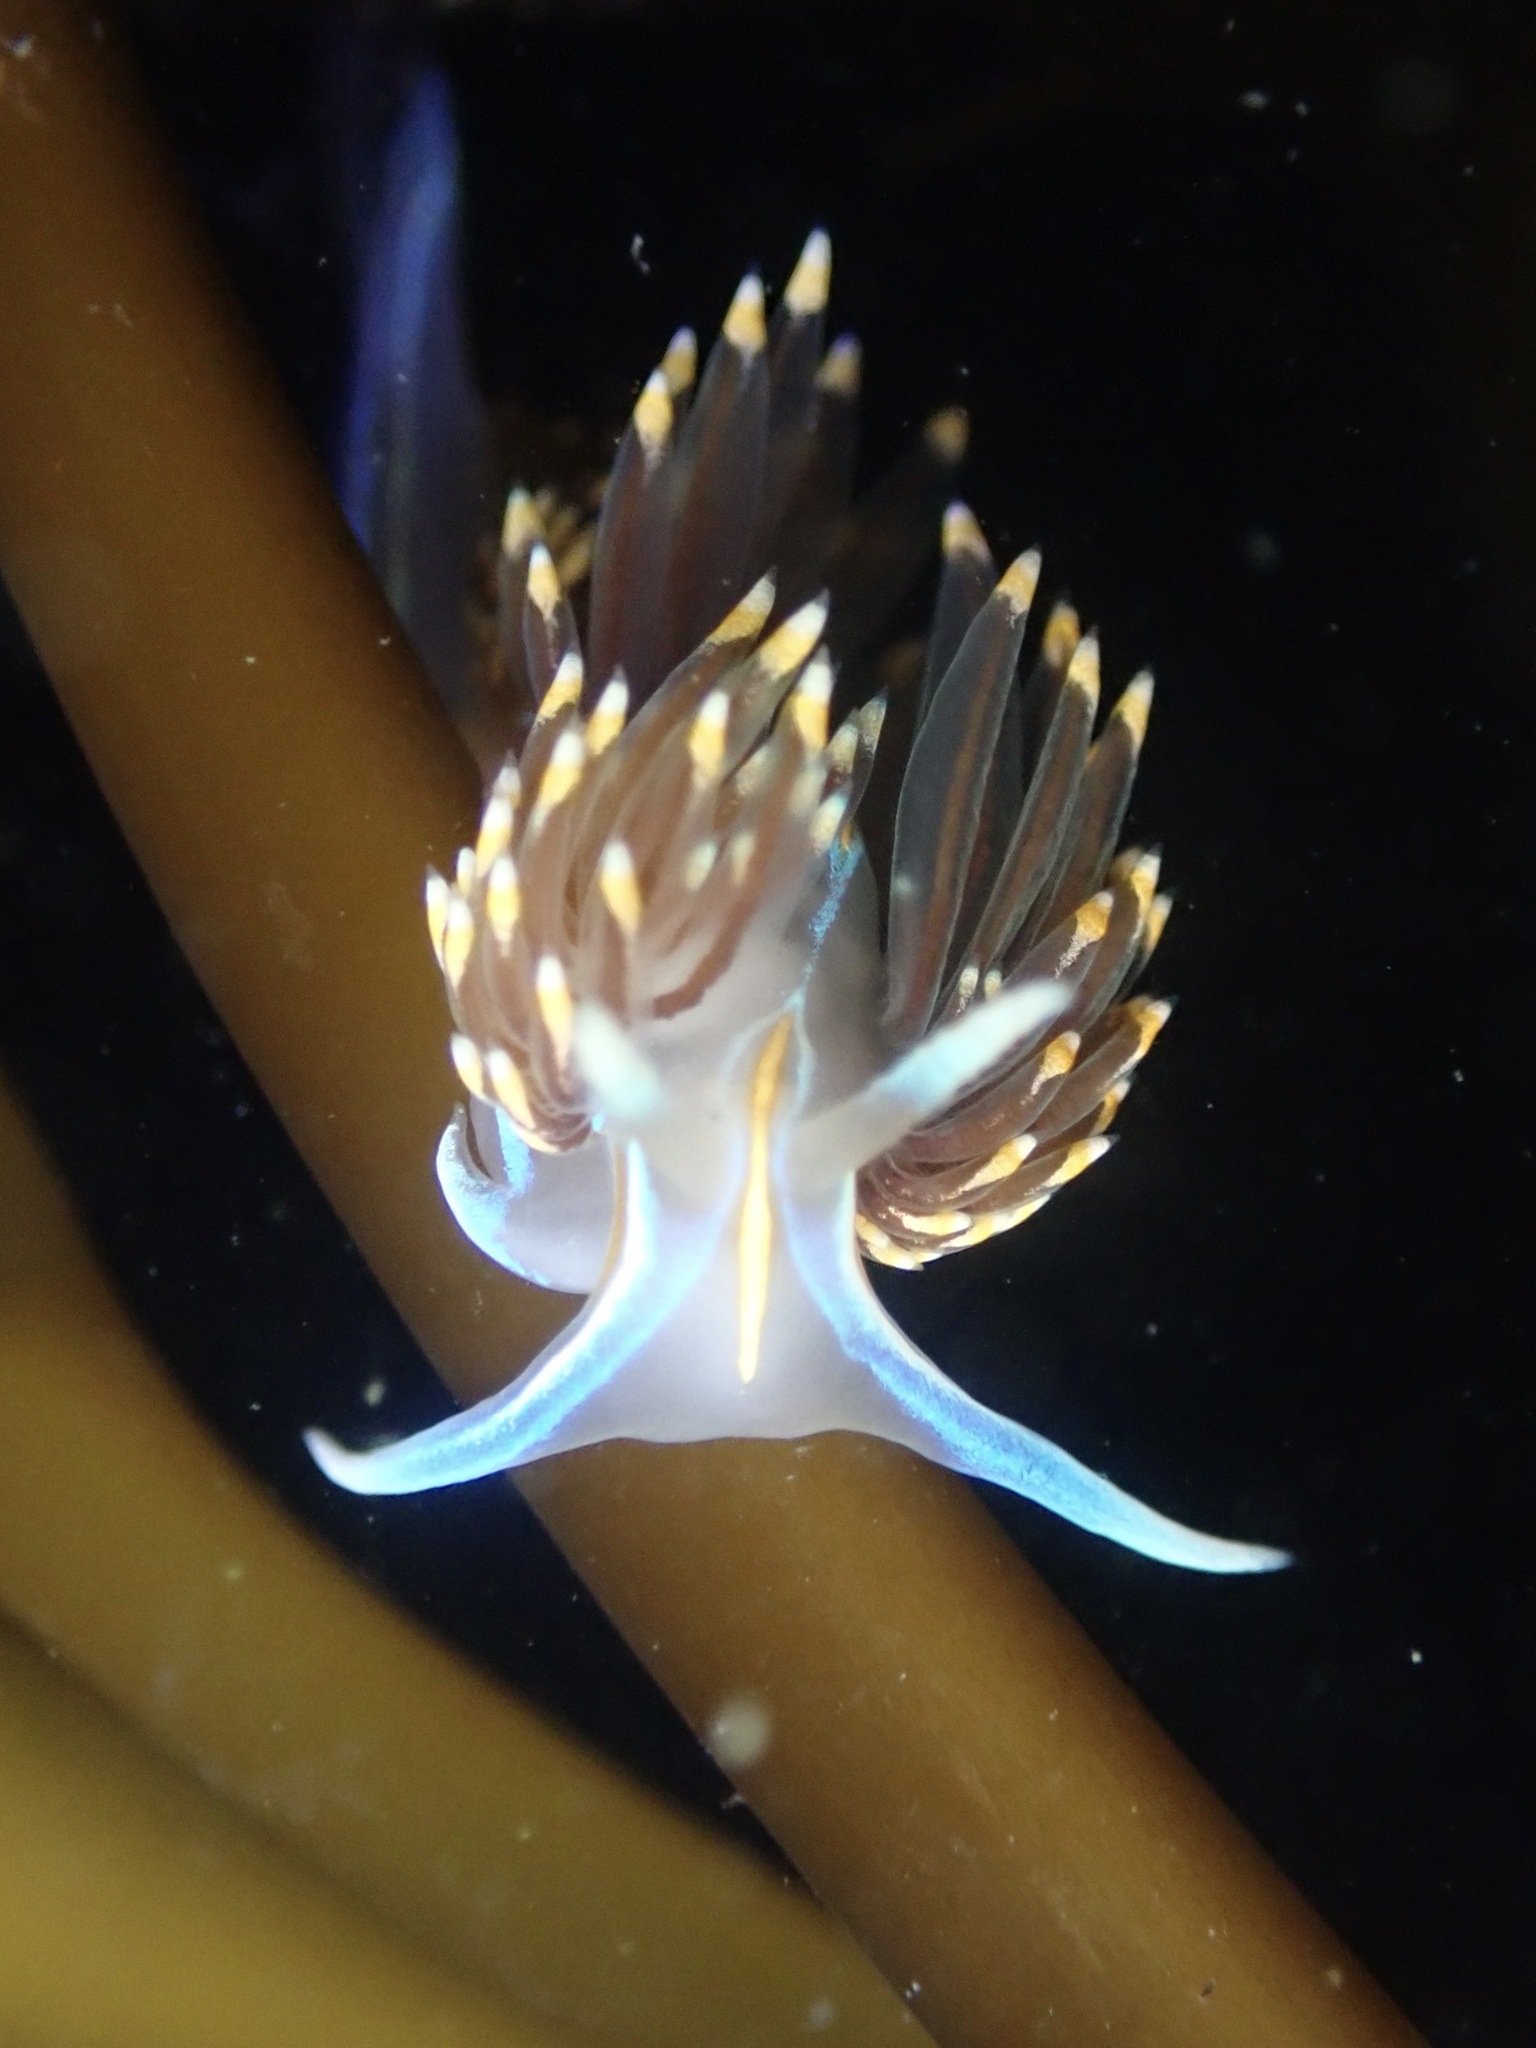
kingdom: Animalia
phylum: Mollusca
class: Gastropoda
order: Nudibranchia
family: Myrrhinidae
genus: Hermissenda
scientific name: Hermissenda opalescens
